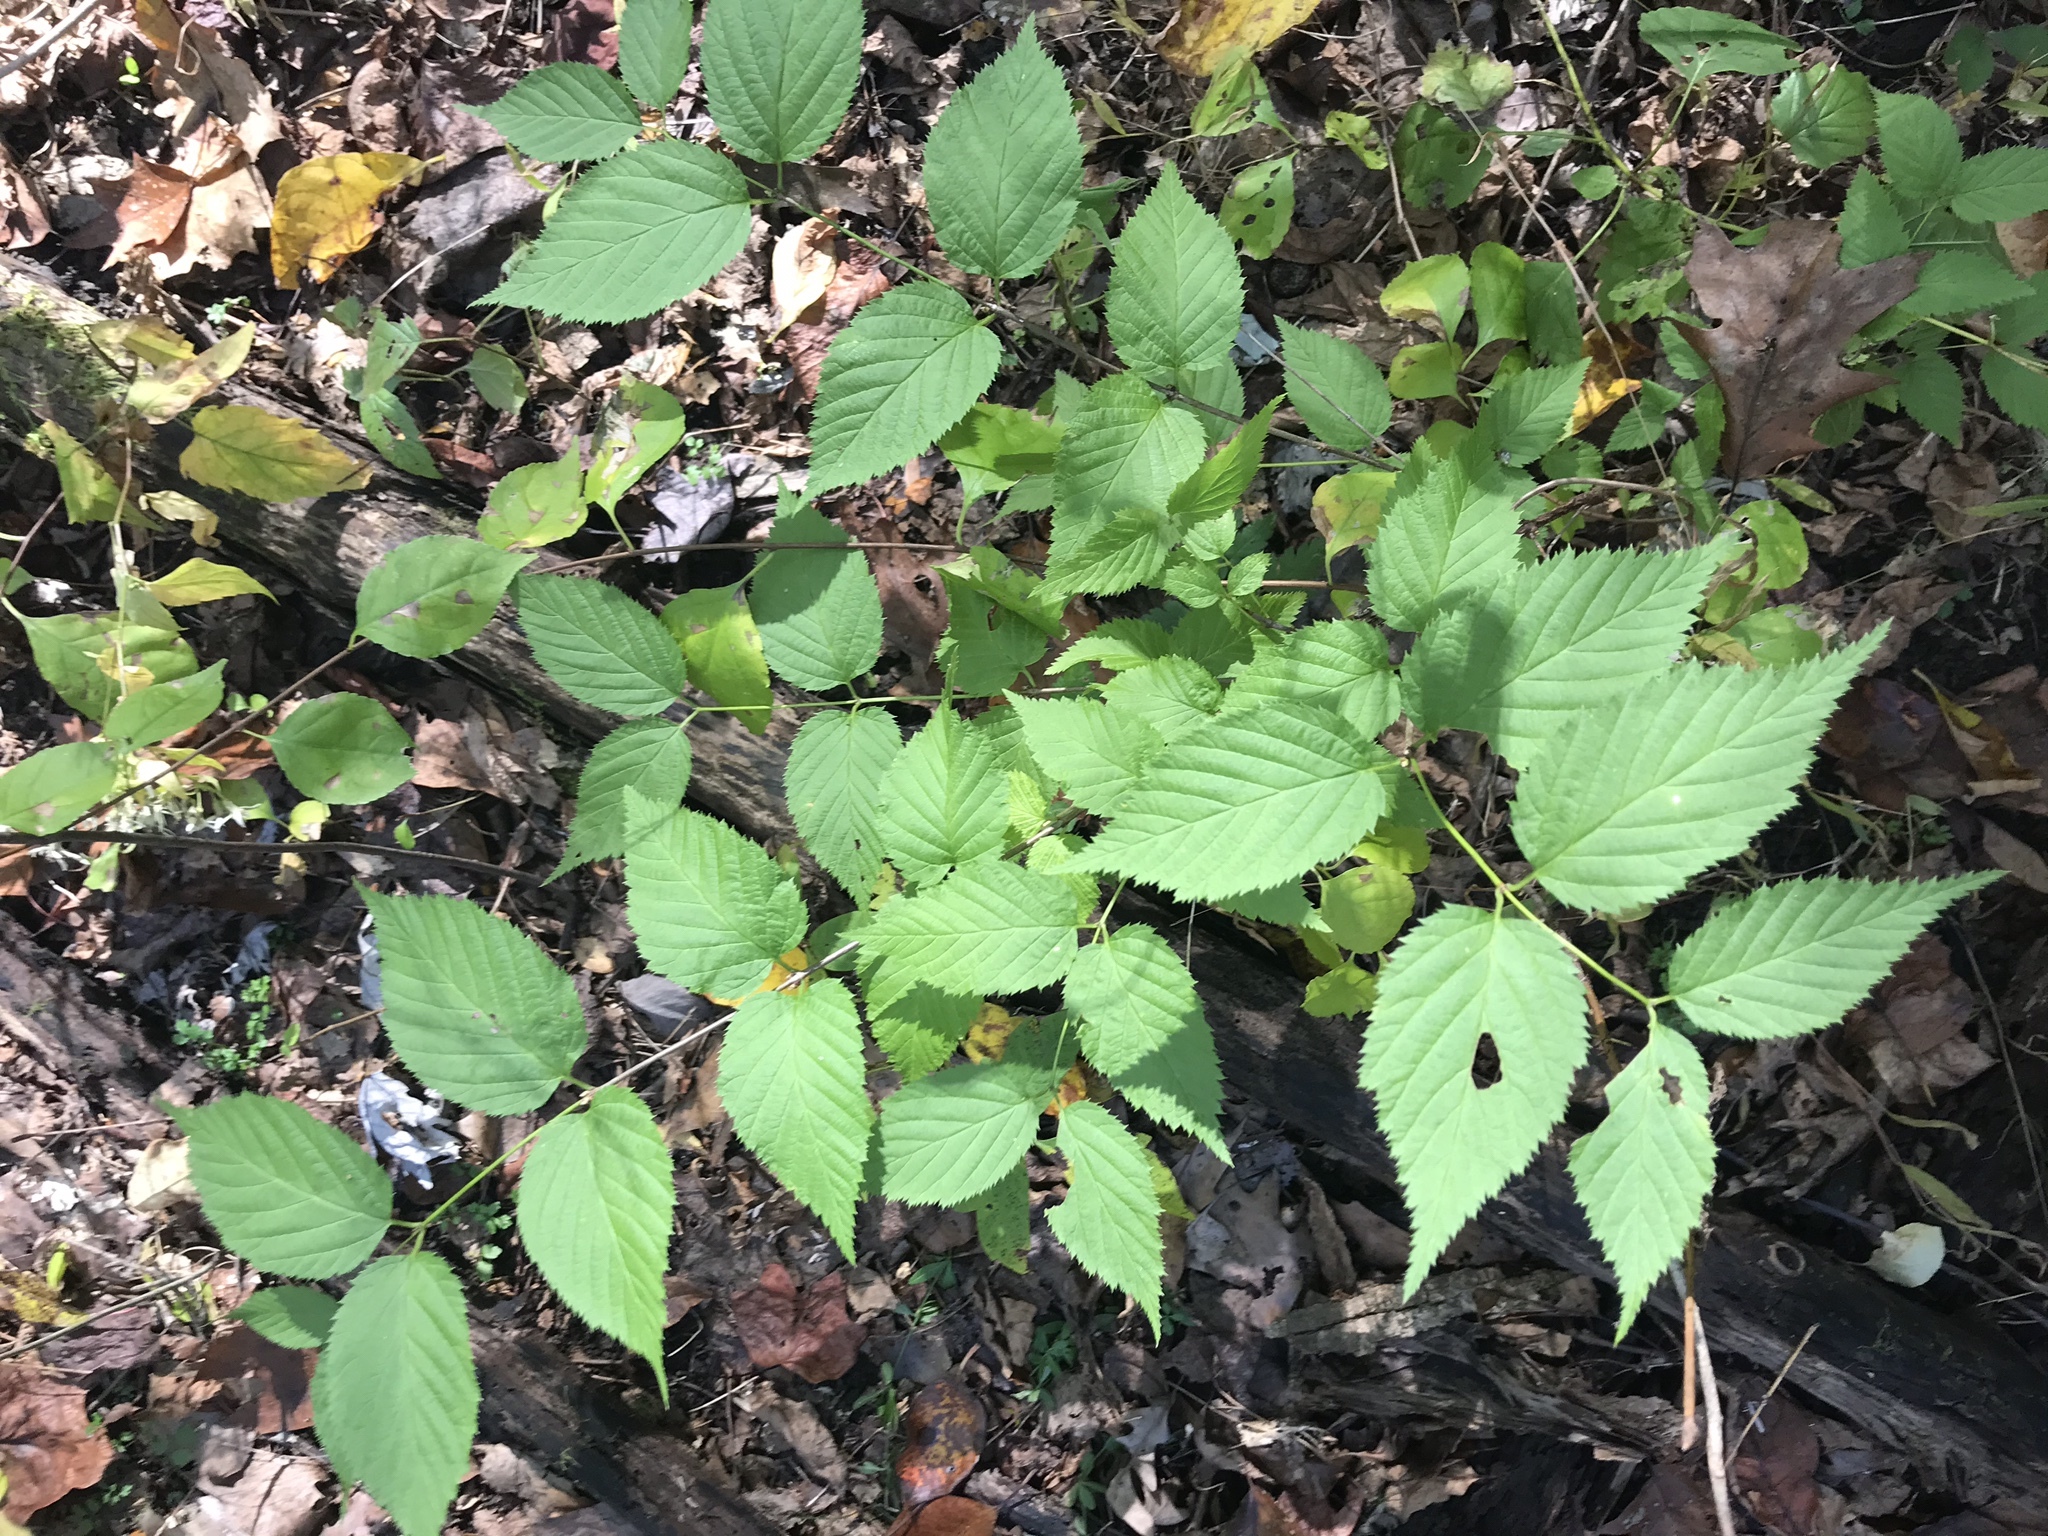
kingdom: Plantae
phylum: Tracheophyta
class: Magnoliopsida
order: Rosales
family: Rosaceae
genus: Rhodotypos
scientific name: Rhodotypos scandens
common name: Jetbead
